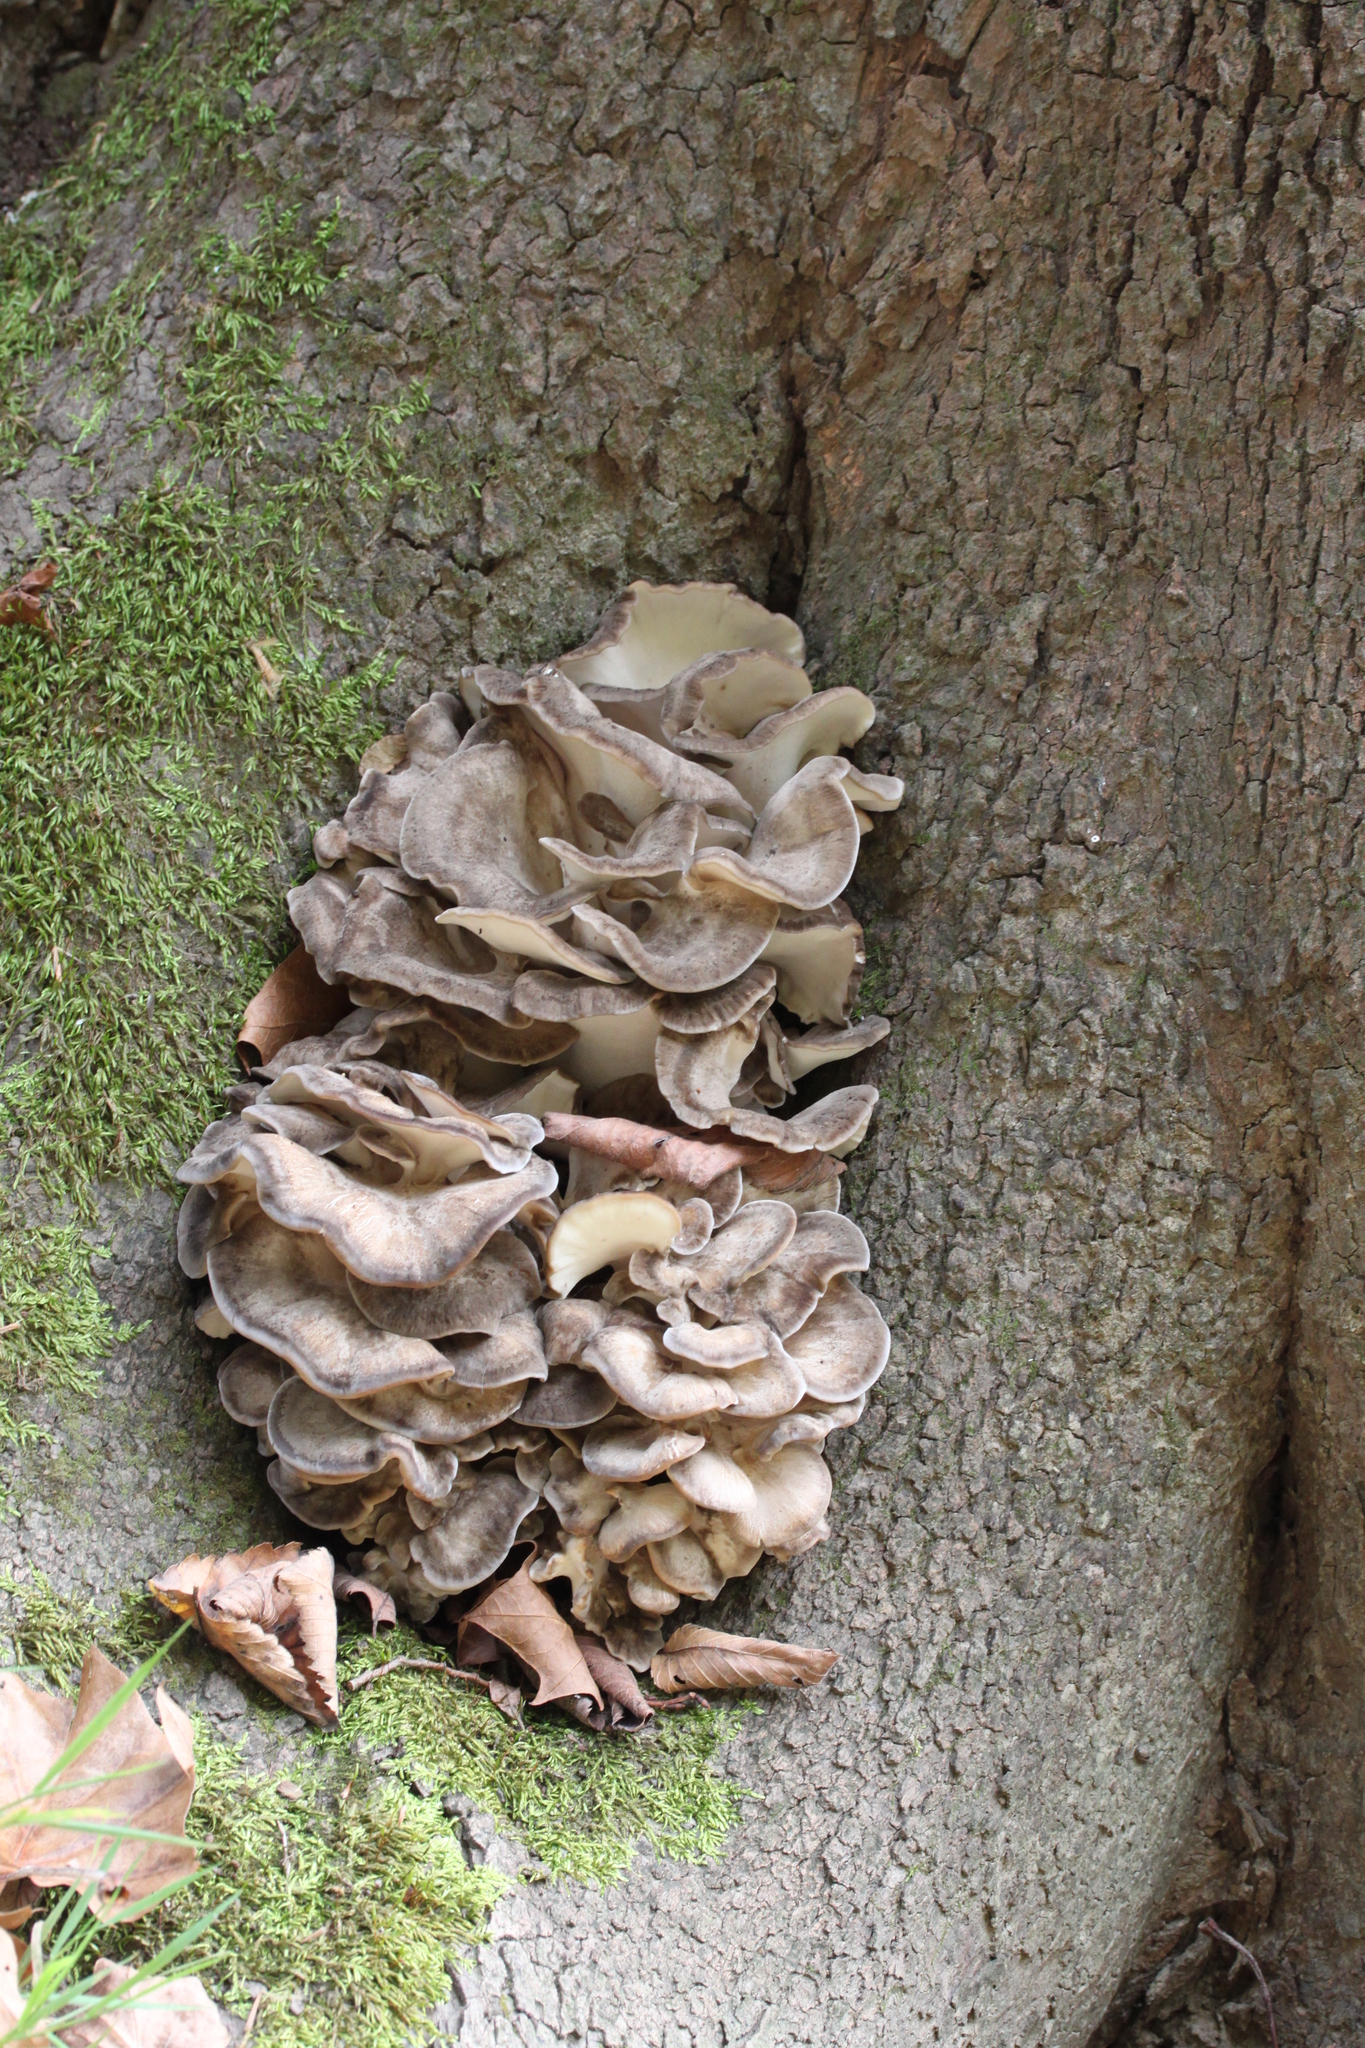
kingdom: Fungi
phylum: Basidiomycota
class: Agaricomycetes
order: Polyporales
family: Grifolaceae
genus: Grifola
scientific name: Grifola frondosa
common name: Hen of the woods
